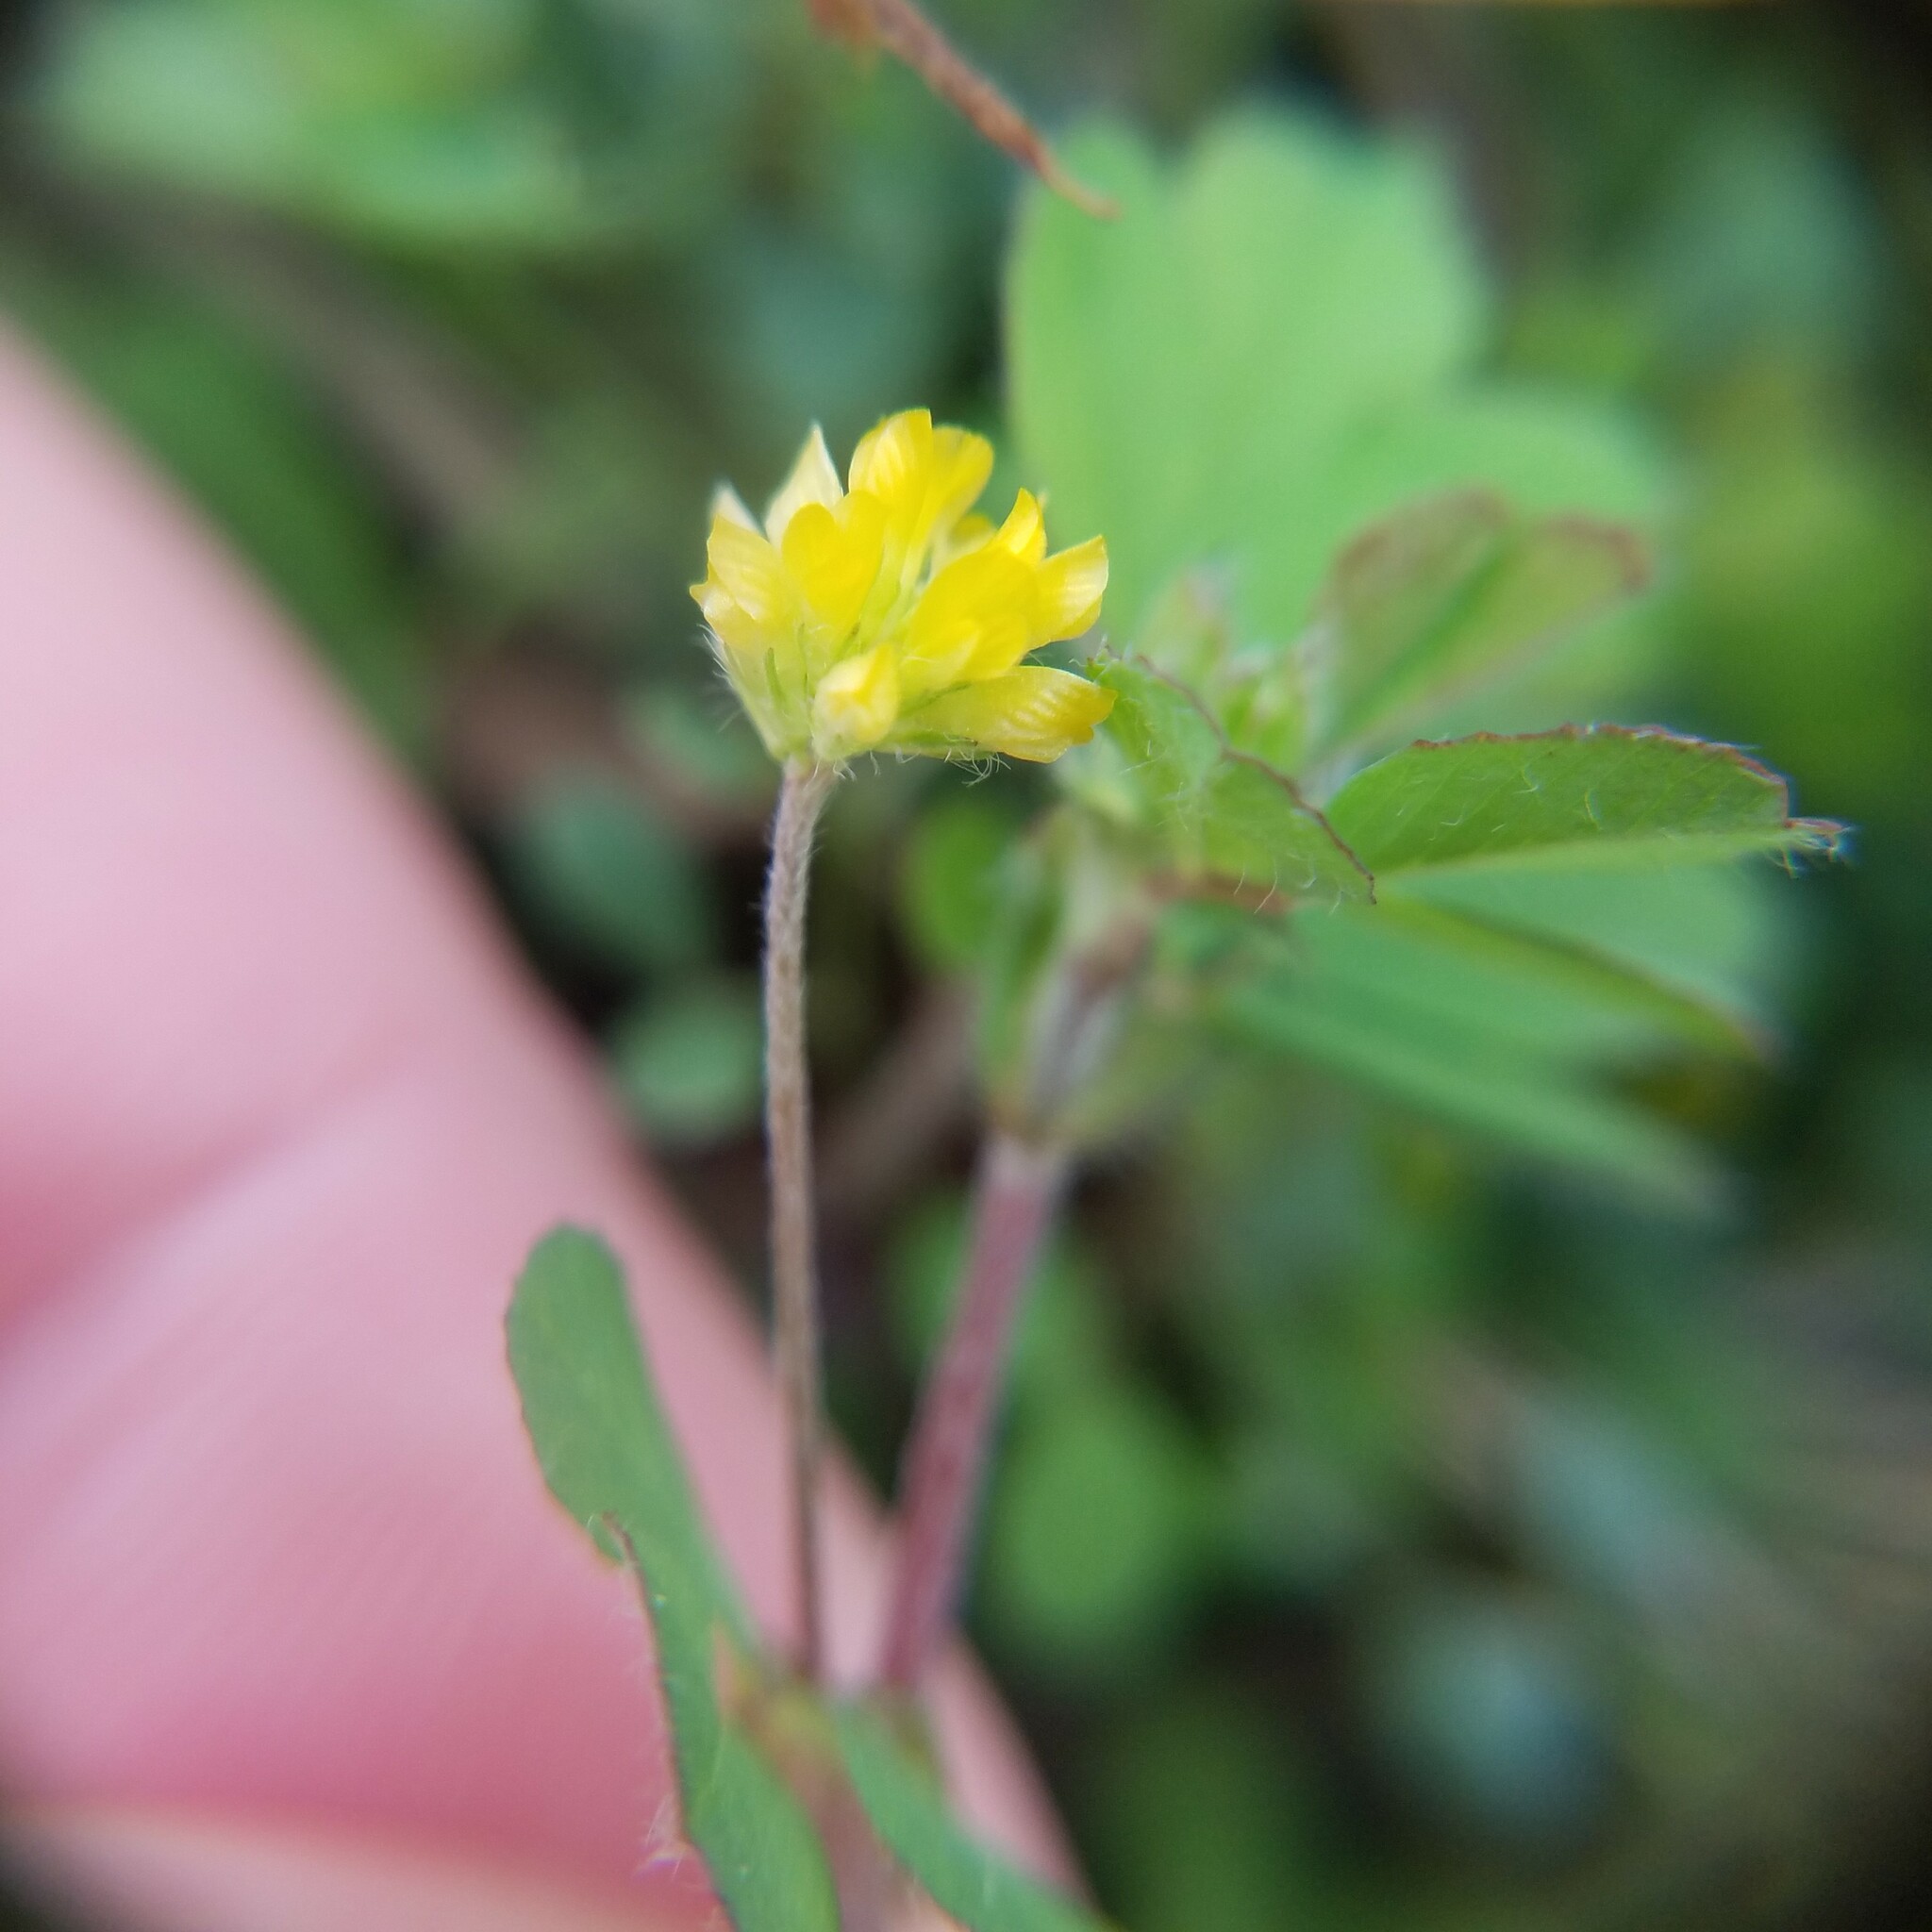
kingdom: Plantae
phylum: Tracheophyta
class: Magnoliopsida
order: Fabales
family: Fabaceae
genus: Medicago
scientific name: Medicago lupulina
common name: Black medick
